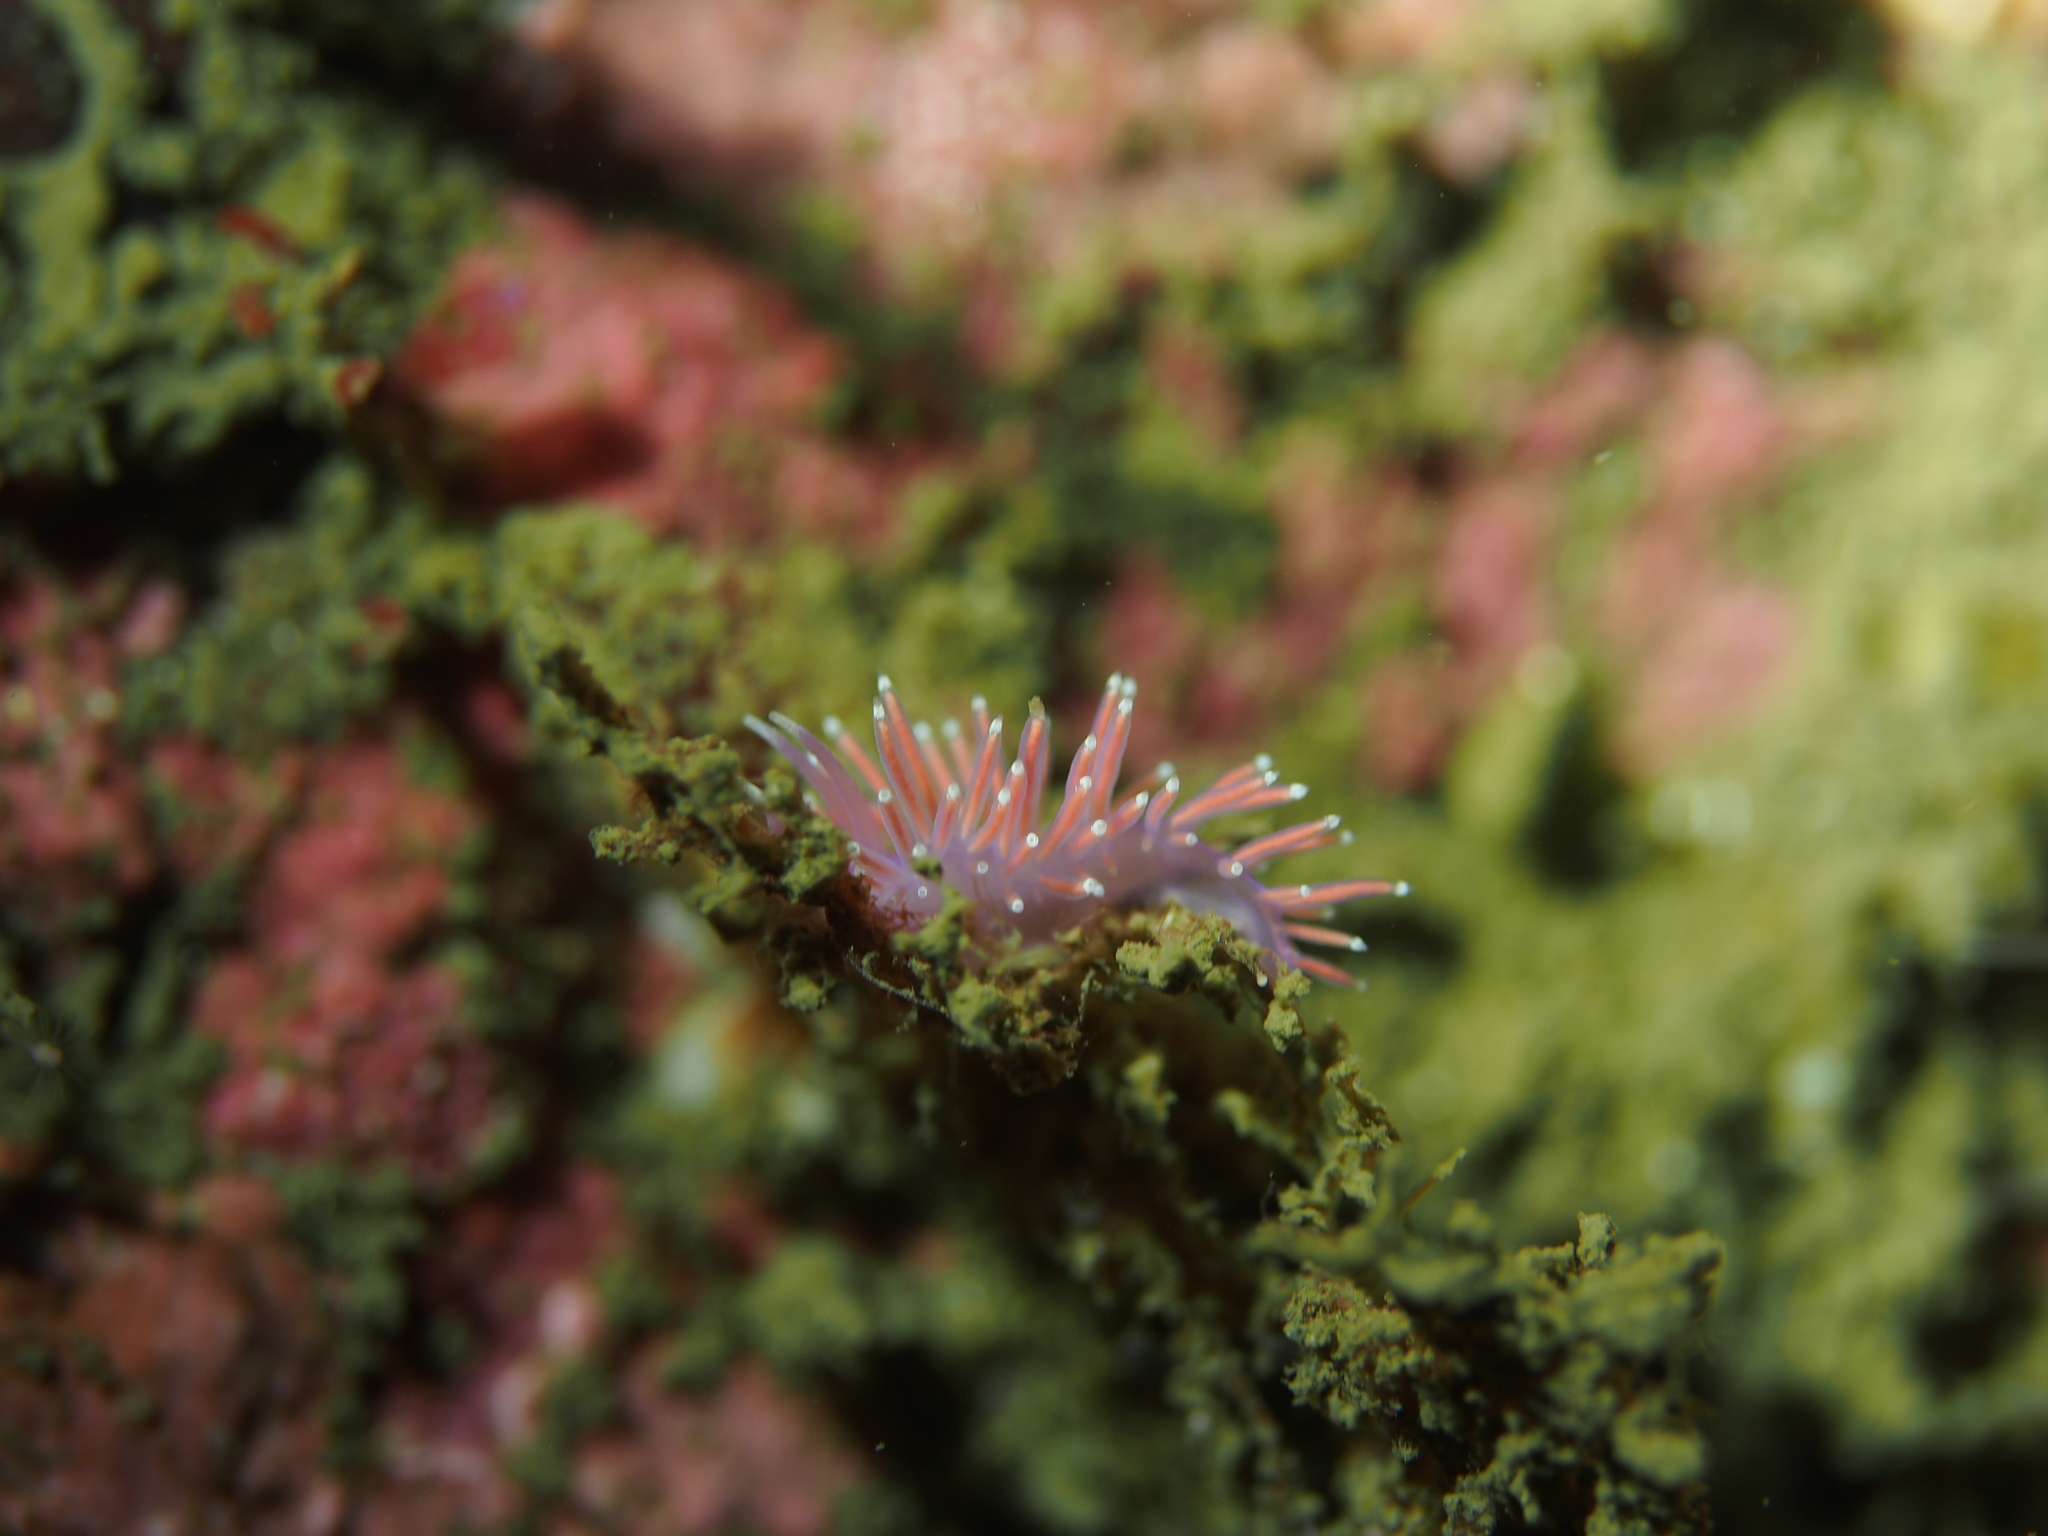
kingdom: Animalia
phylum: Mollusca
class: Gastropoda
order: Nudibranchia
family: Flabellinidae
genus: Edmundsella
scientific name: Edmundsella pedata
